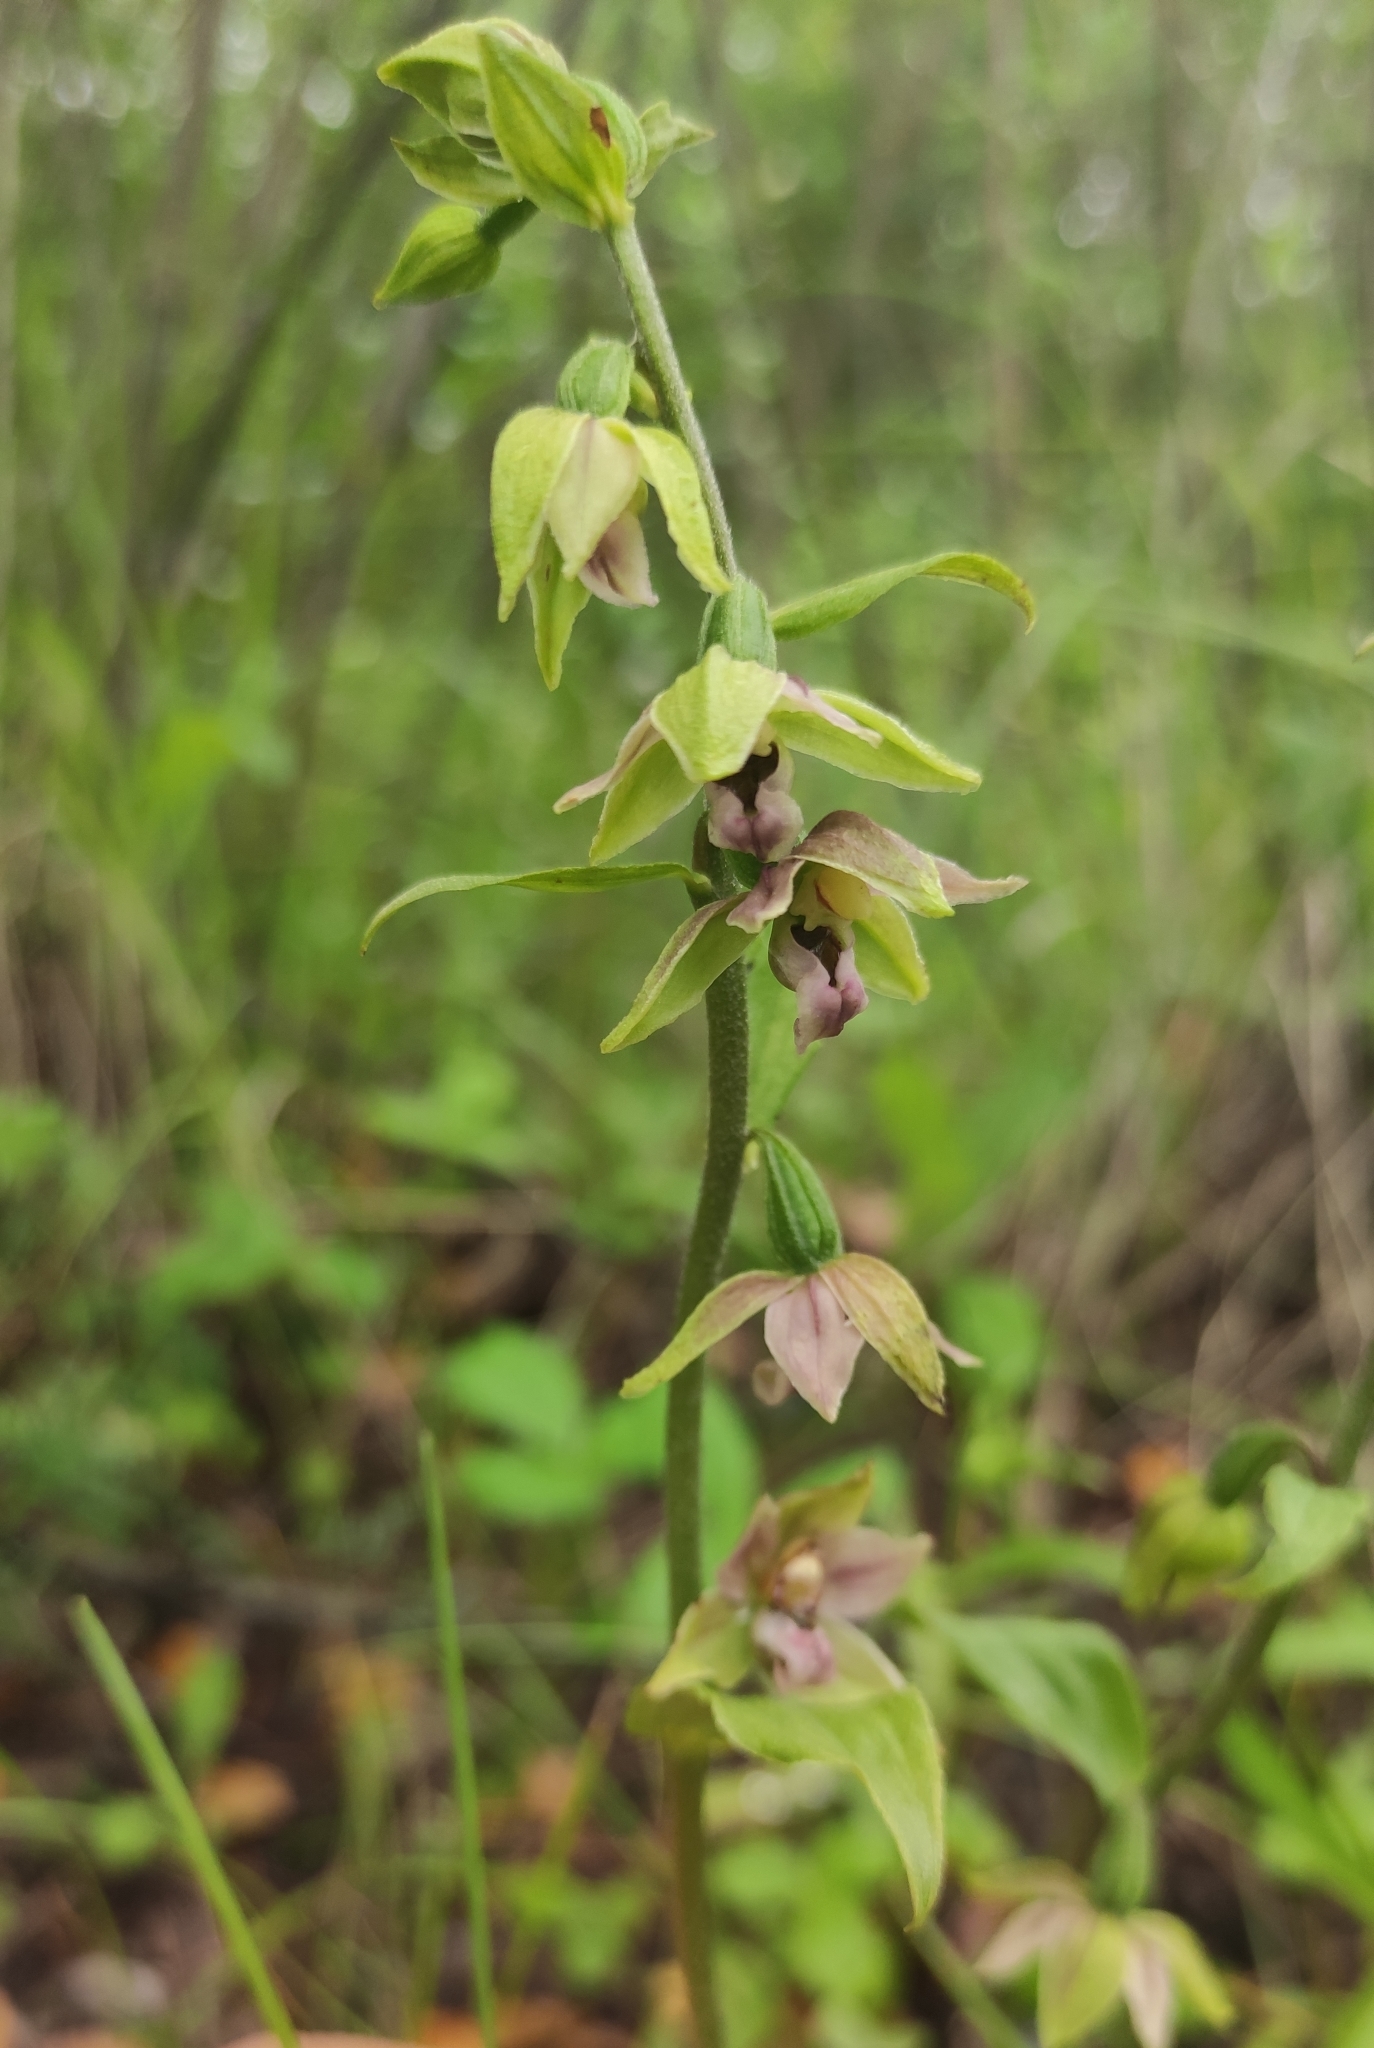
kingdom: Plantae
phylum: Tracheophyta
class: Liliopsida
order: Asparagales
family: Orchidaceae
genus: Epipactis
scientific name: Epipactis helleborine
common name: Broad-leaved helleborine
